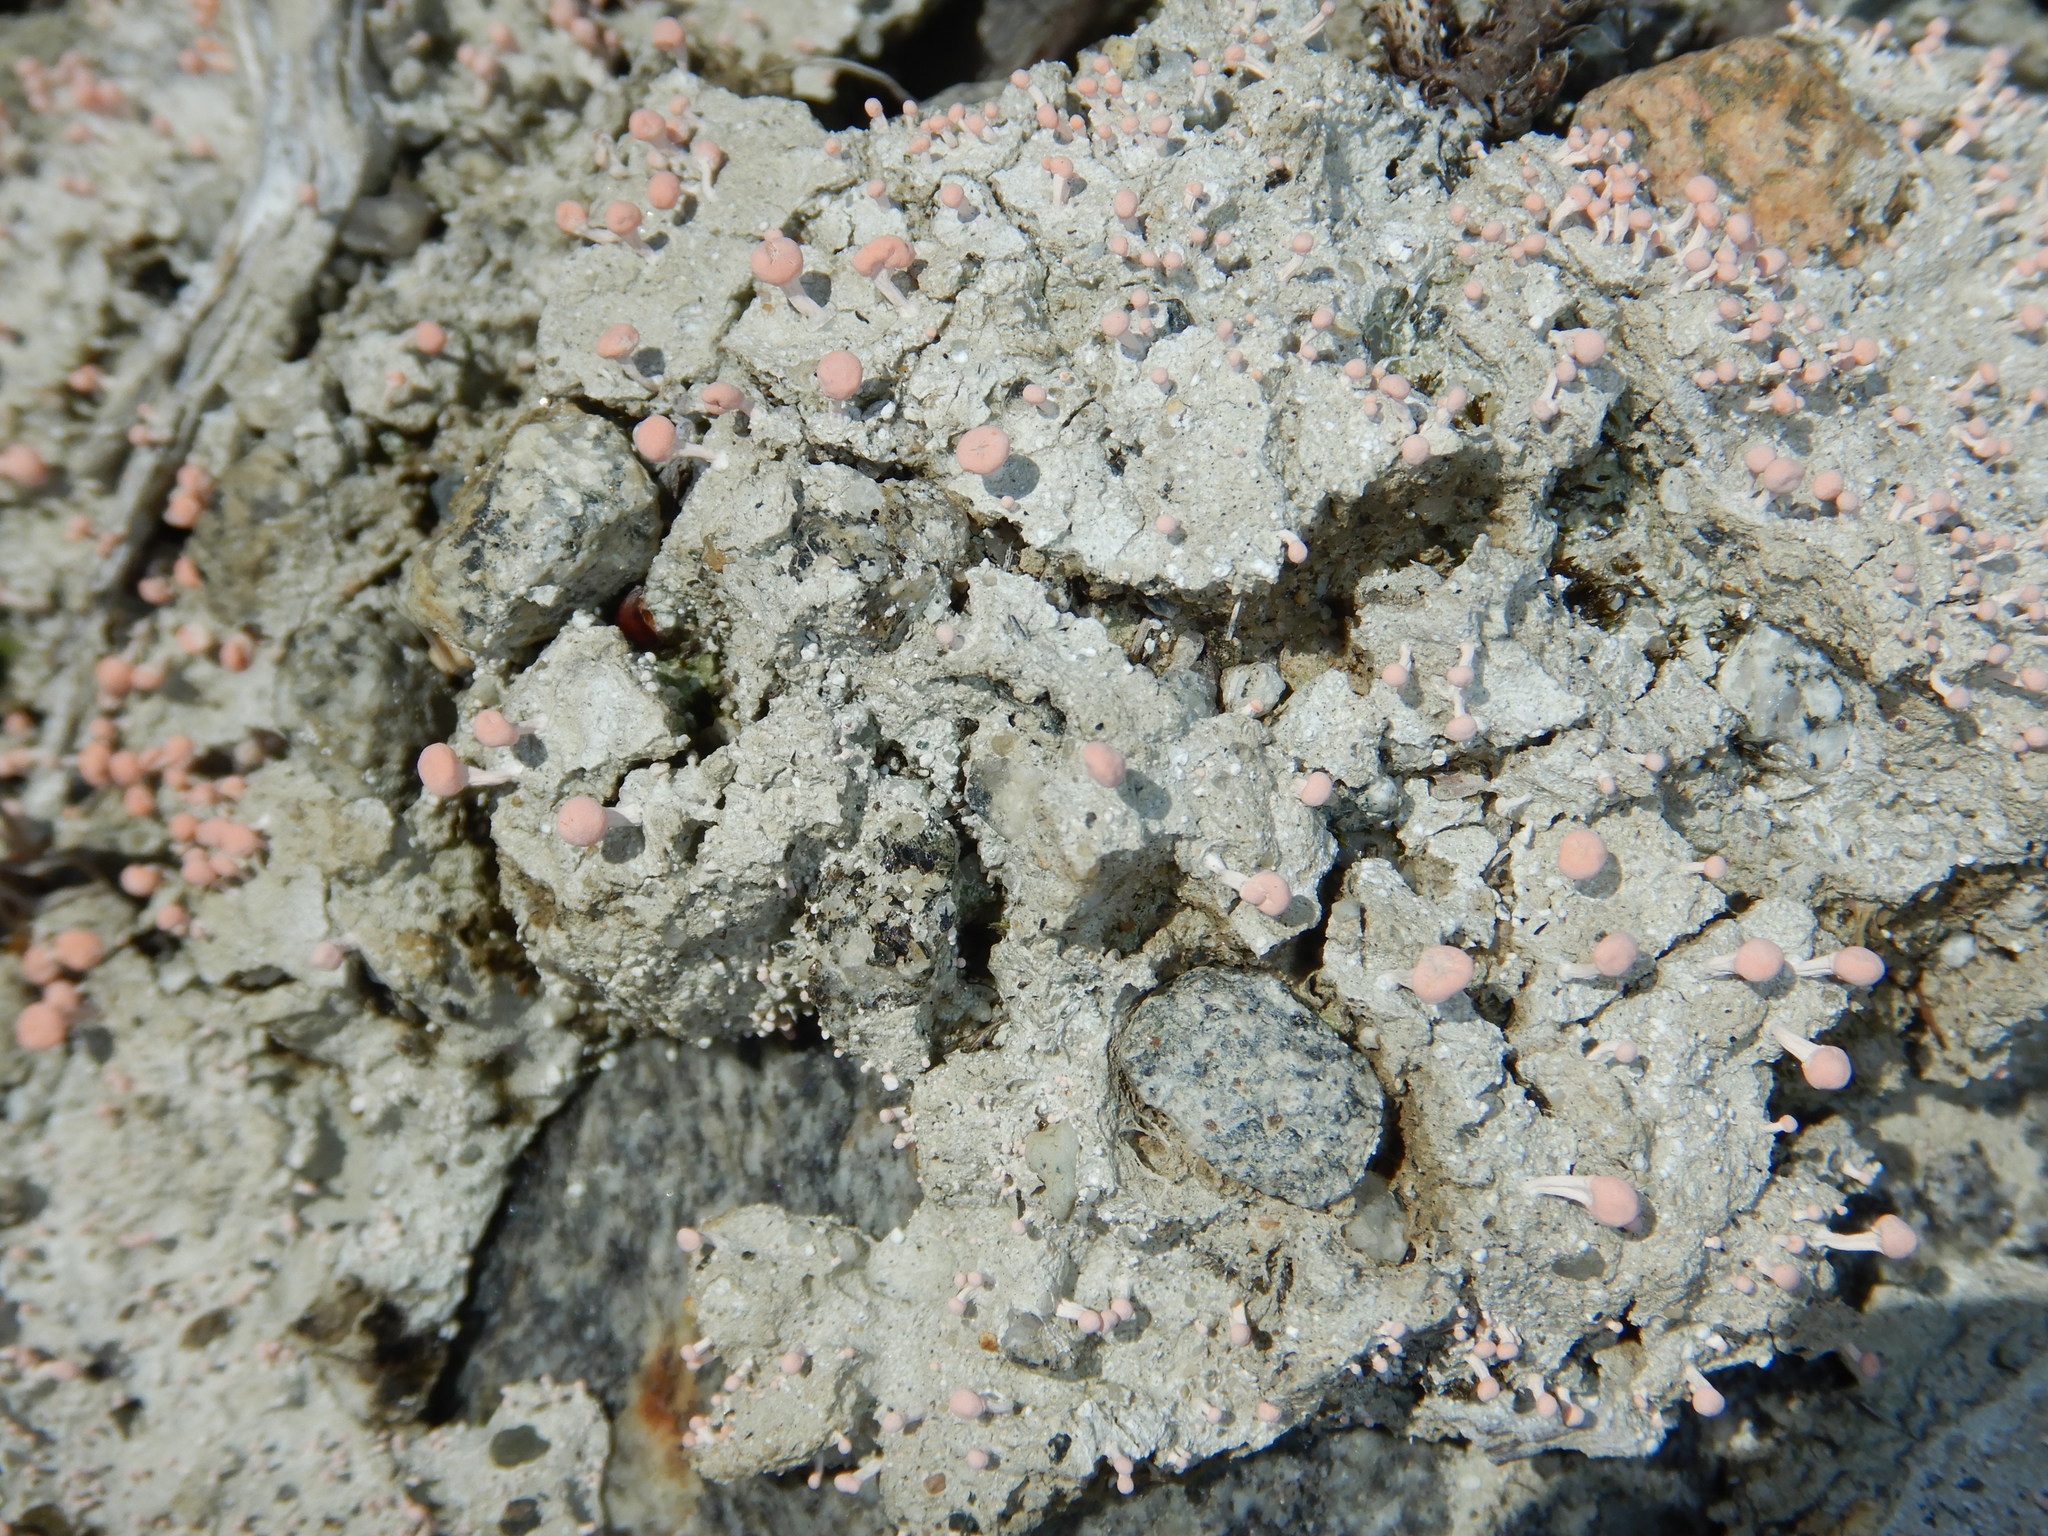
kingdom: Fungi
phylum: Ascomycota
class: Lecanoromycetes
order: Pertusariales
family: Icmadophilaceae
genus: Dibaeis
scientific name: Dibaeis baeomyces
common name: Pink earth lichen
